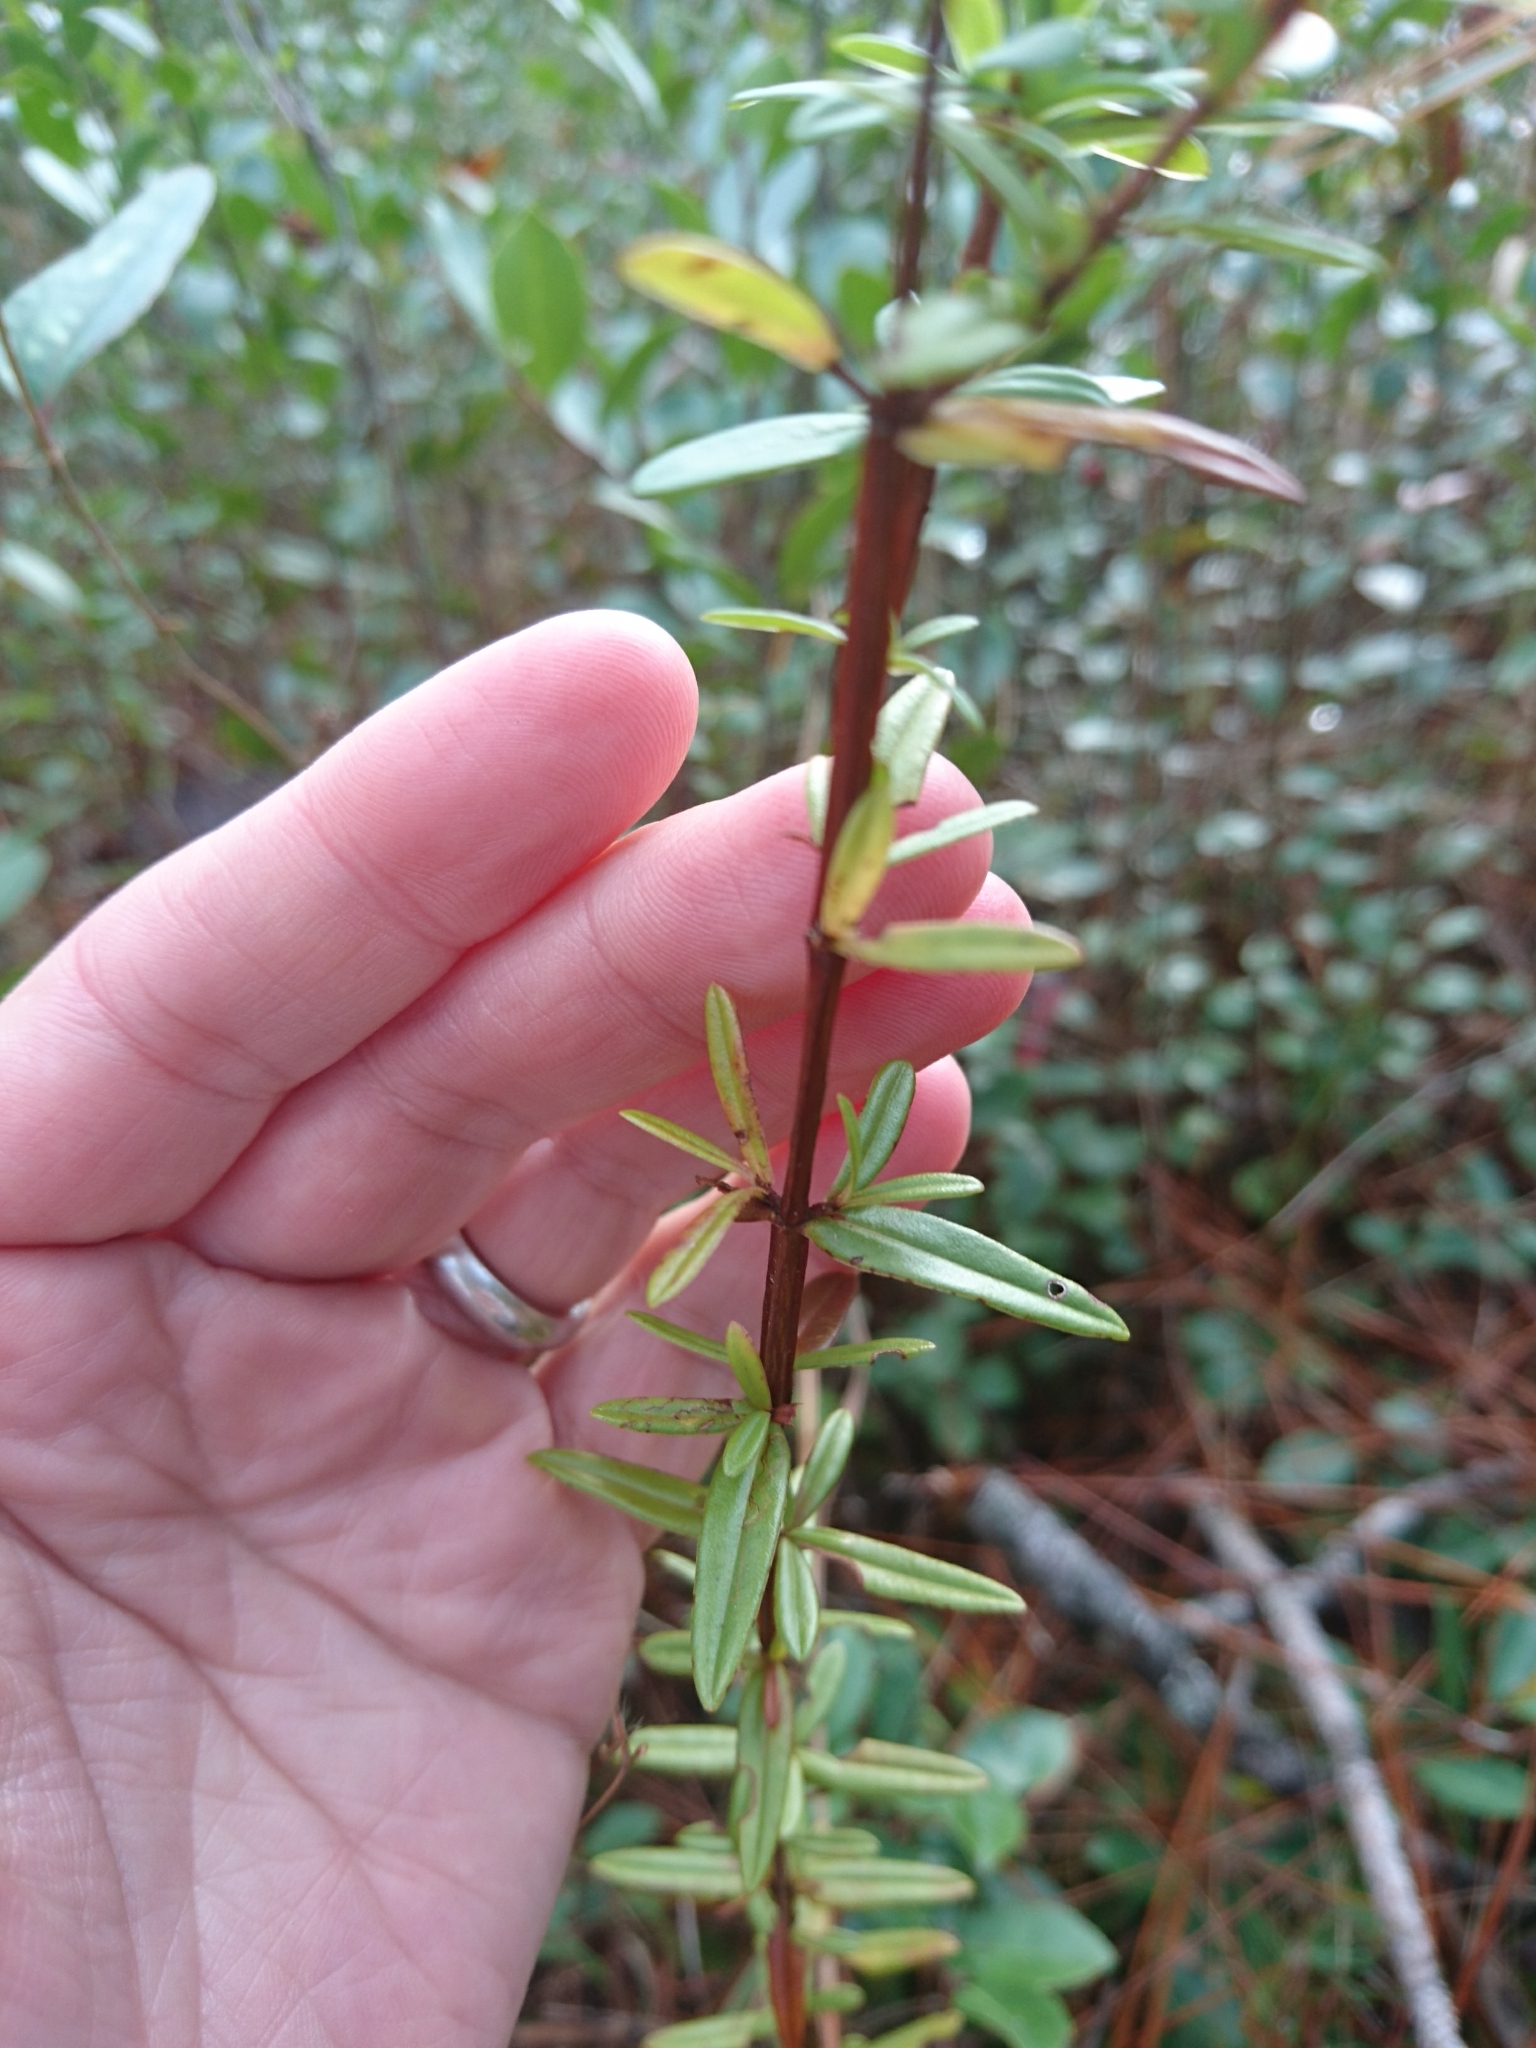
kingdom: Plantae
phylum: Tracheophyta
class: Magnoliopsida
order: Malpighiales
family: Hypericaceae
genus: Hypericum
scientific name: Hypericum cistifolium
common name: Round-pod st. john's-wort
